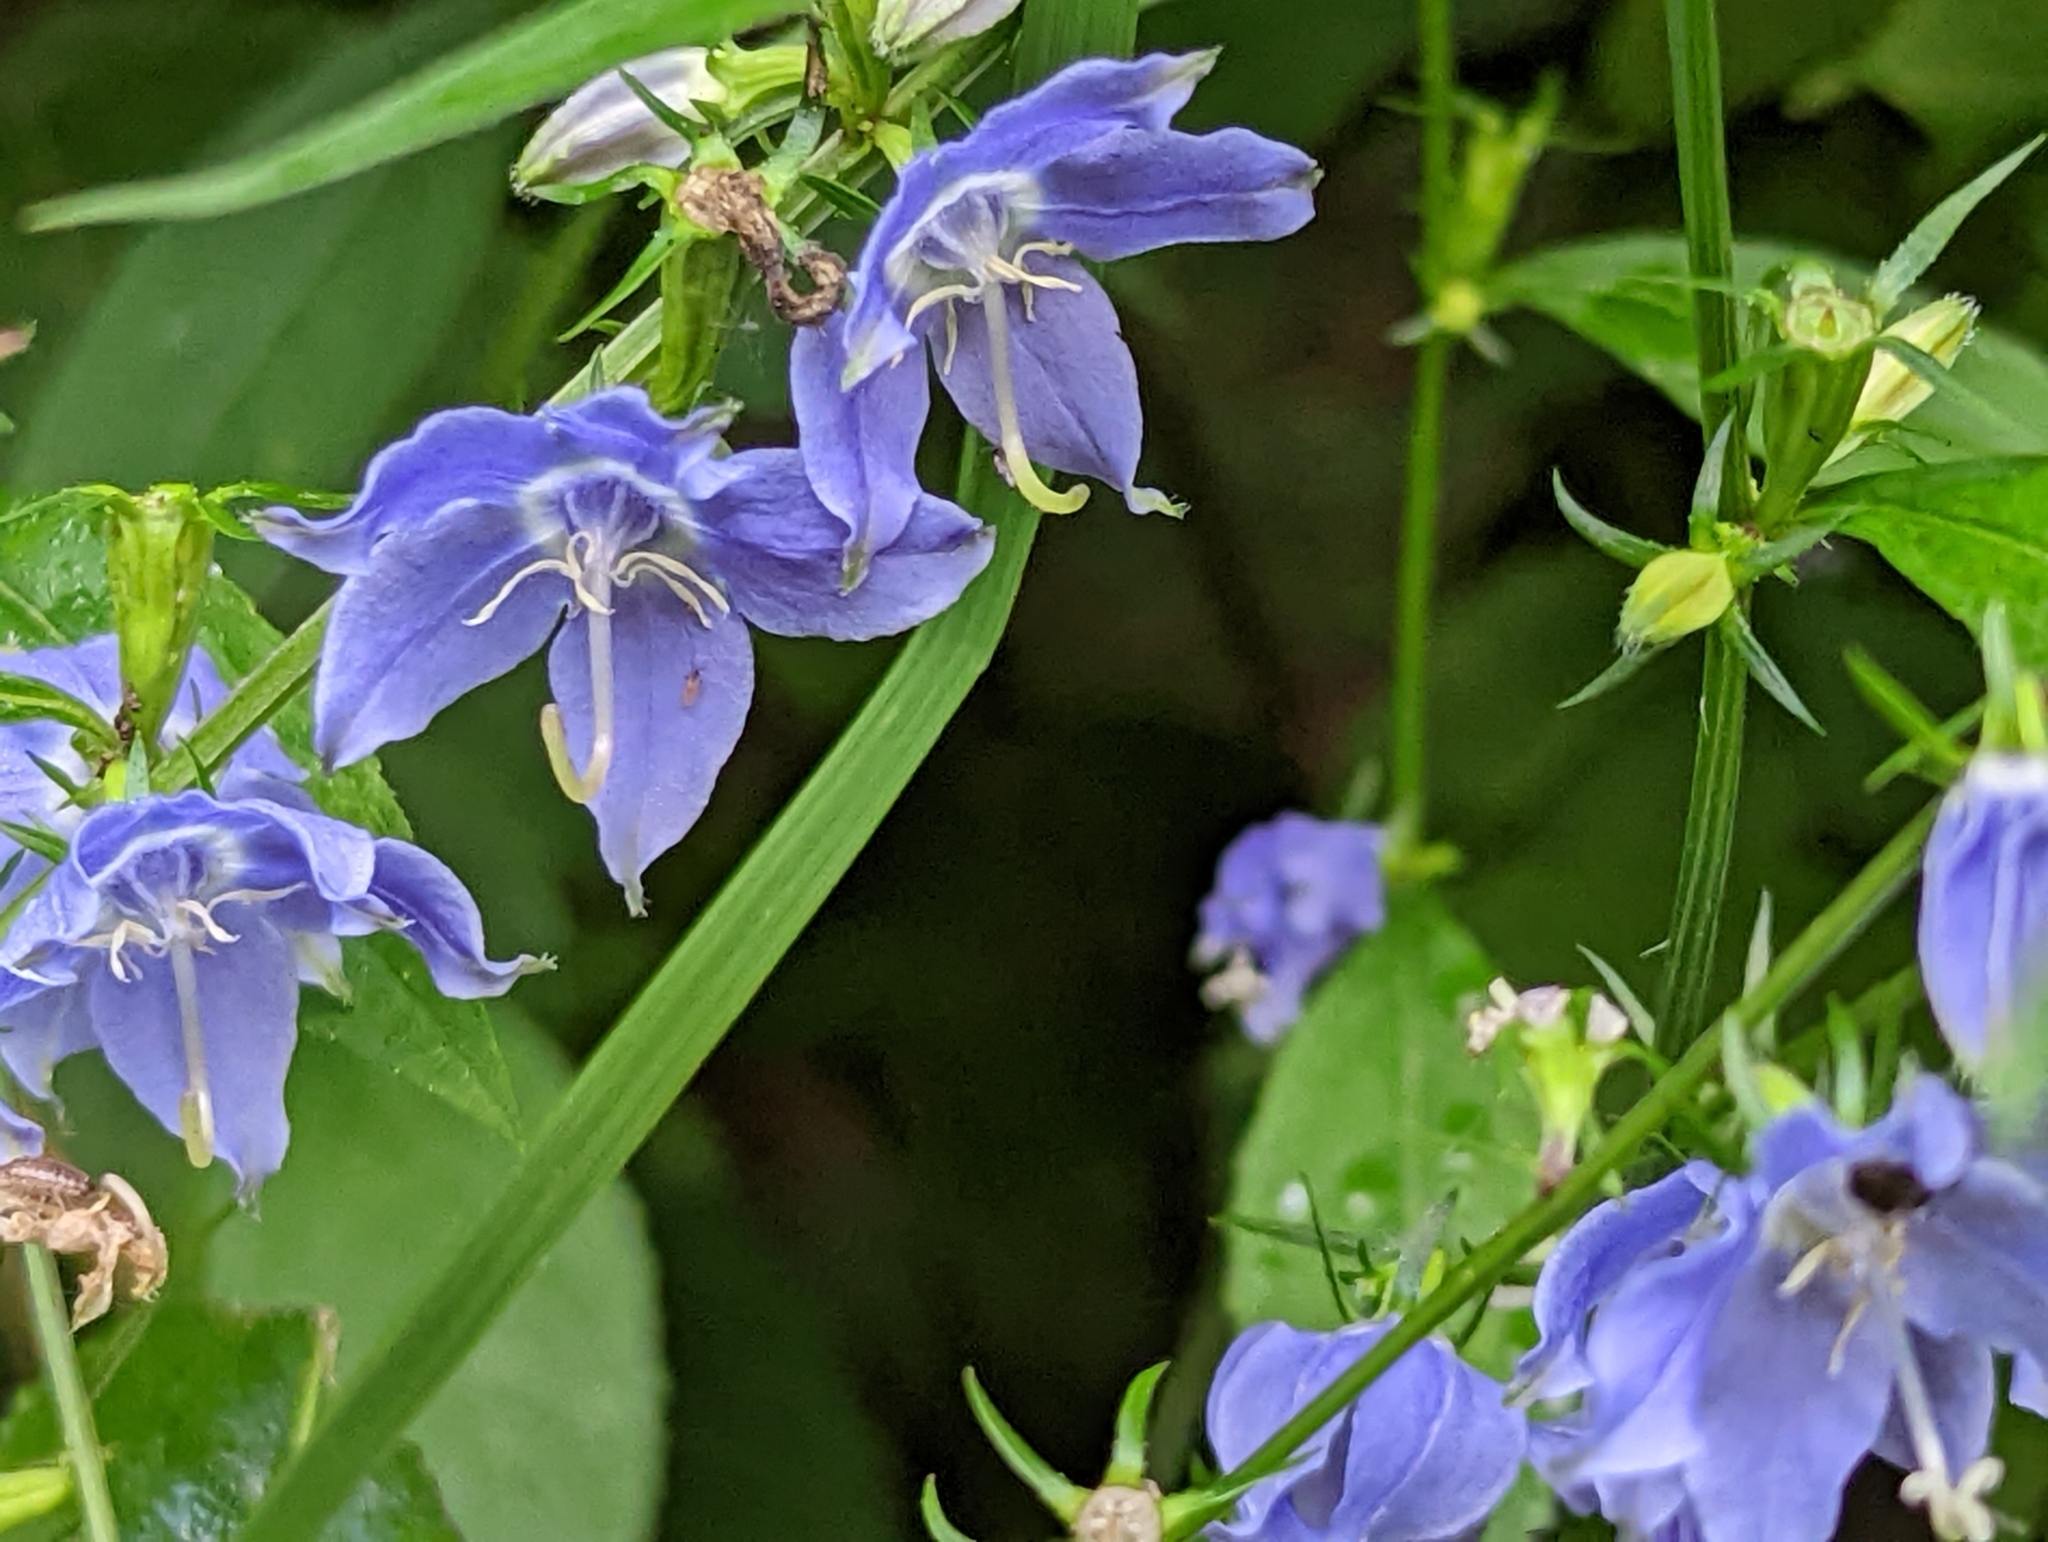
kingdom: Plantae
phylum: Tracheophyta
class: Magnoliopsida
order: Asterales
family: Campanulaceae
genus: Campanulastrum
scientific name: Campanulastrum americanum
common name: American bellflower
